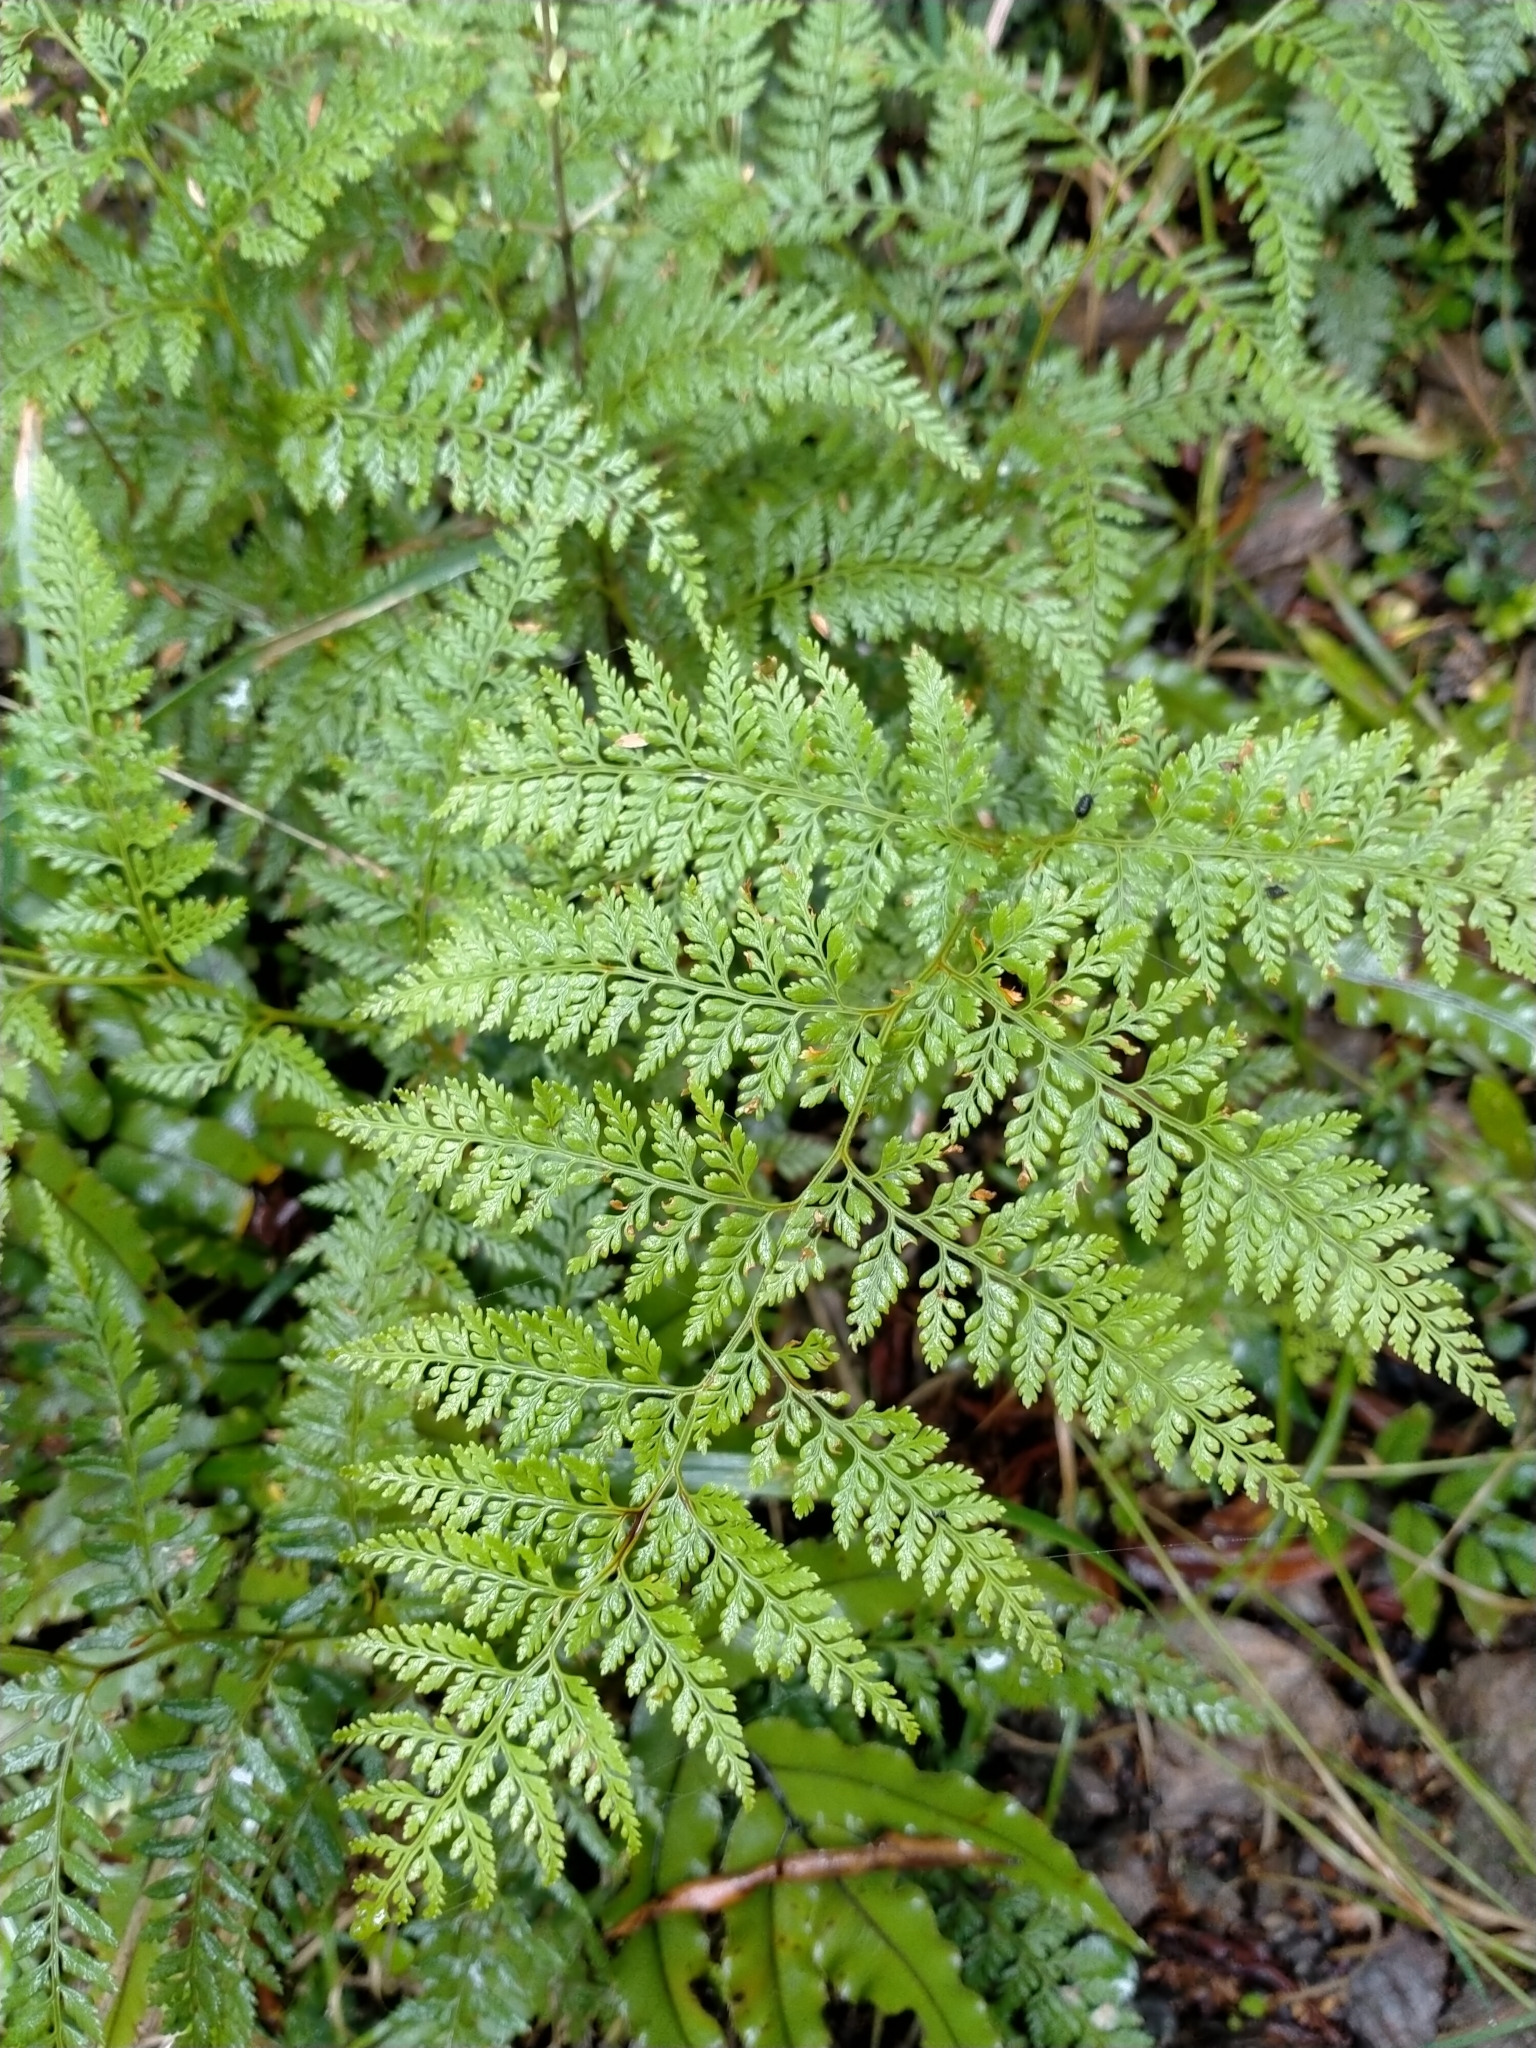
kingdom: Plantae
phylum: Tracheophyta
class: Polypodiopsida
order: Polypodiales
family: Dennstaedtiaceae
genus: Paesia
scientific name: Paesia scaberula
